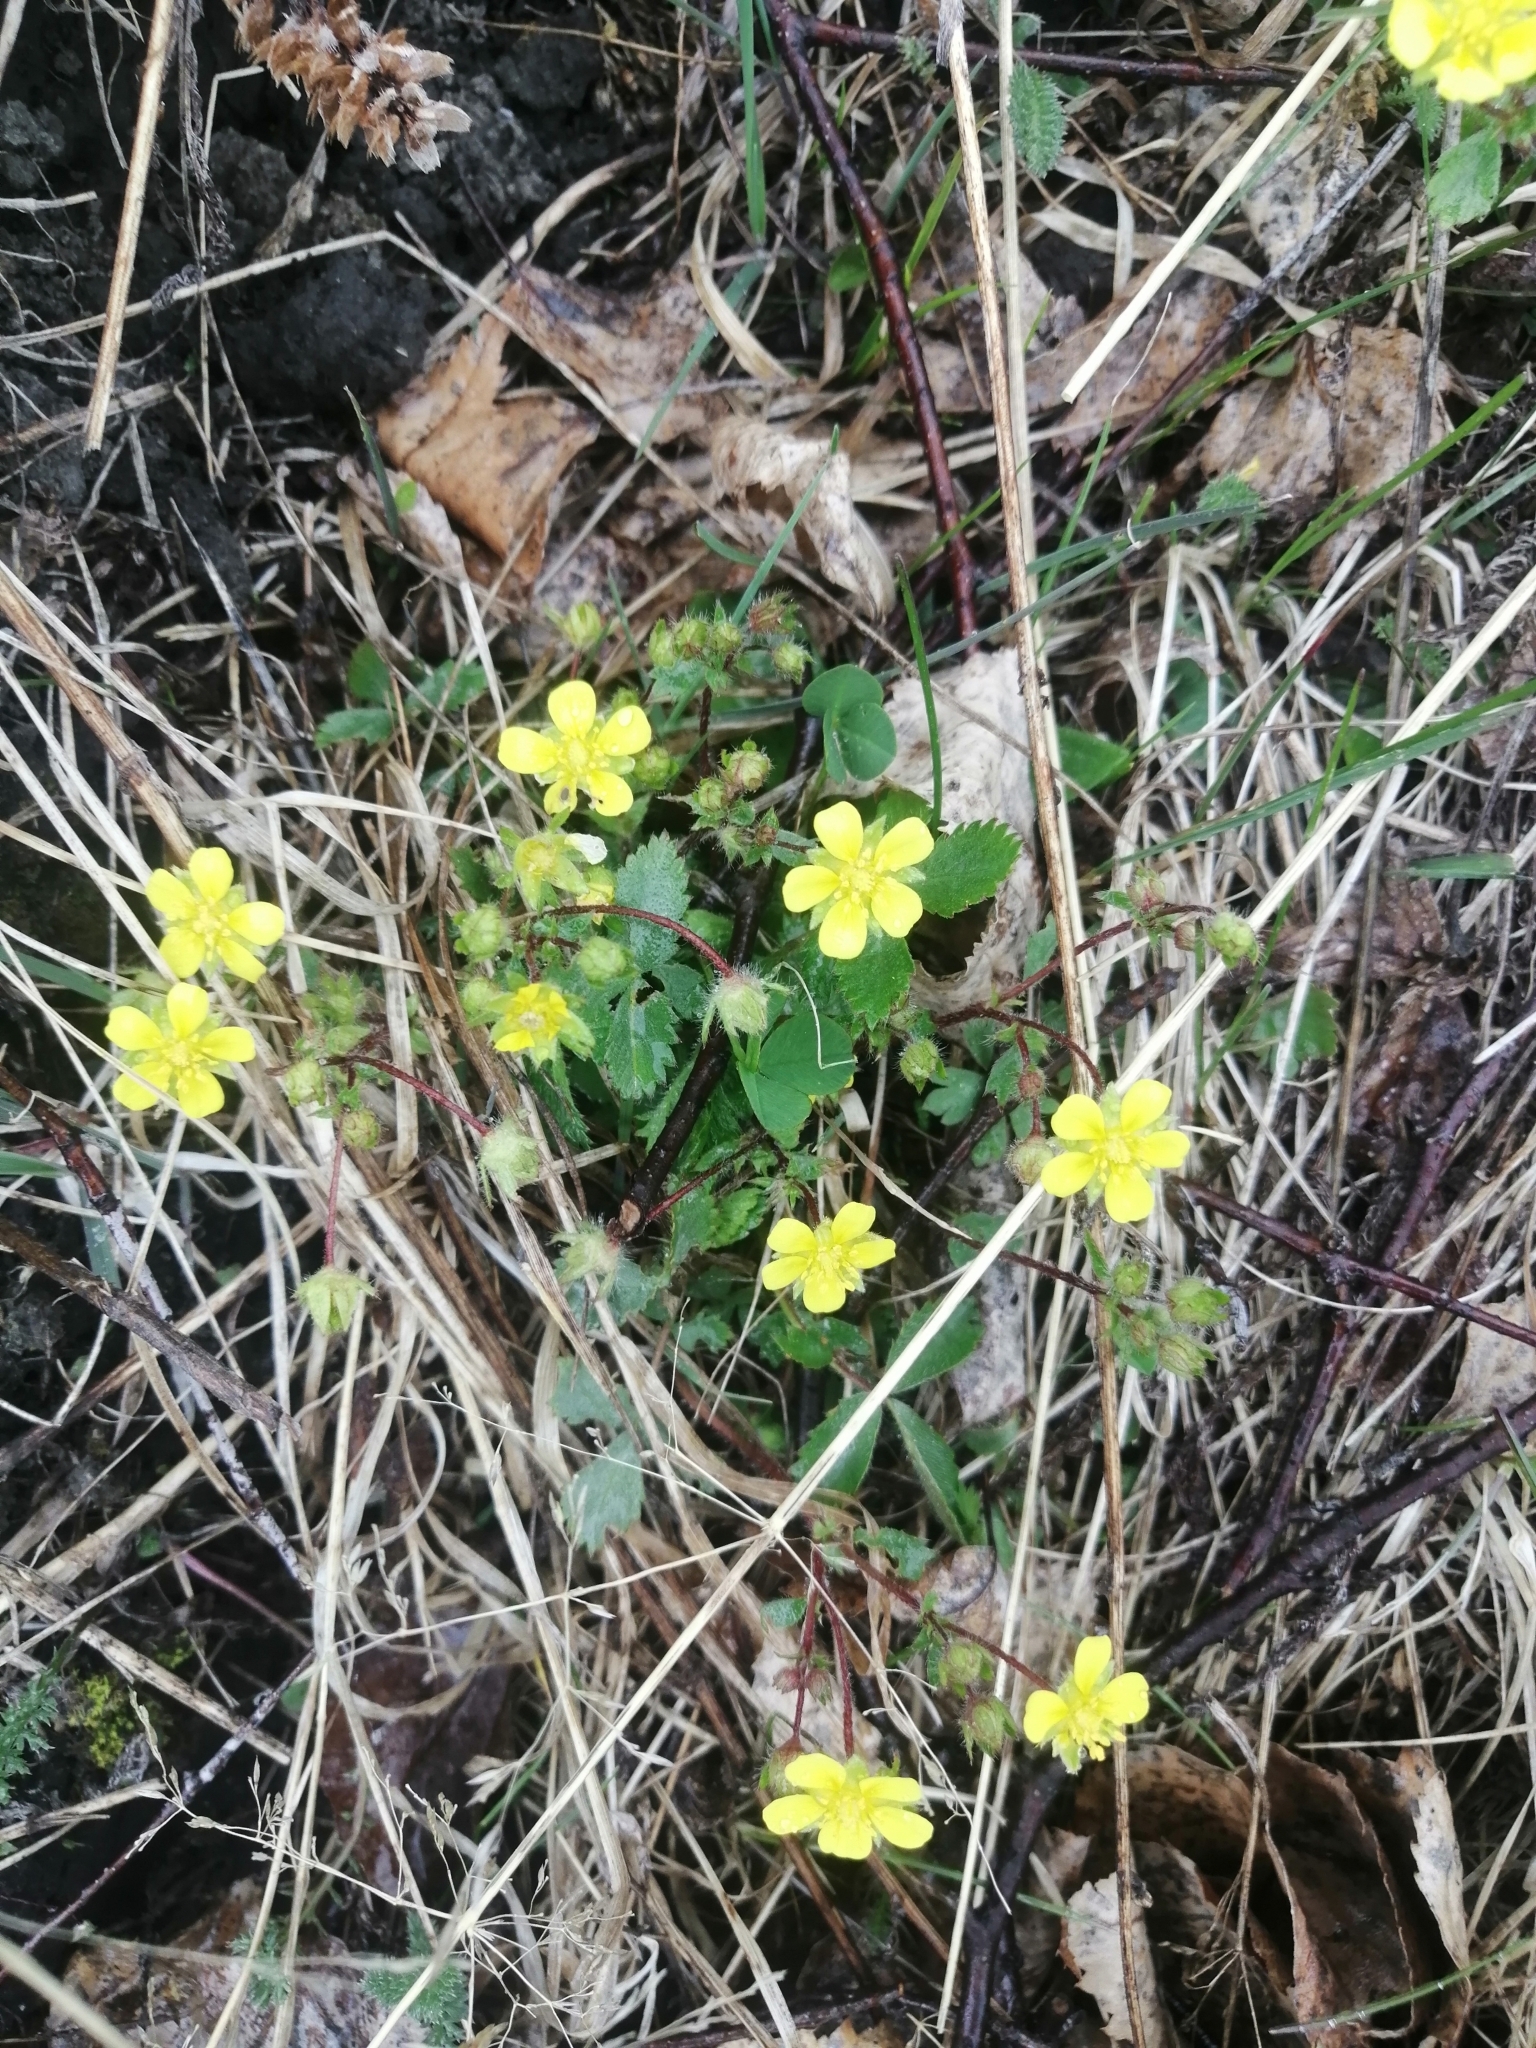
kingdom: Plantae
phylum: Tracheophyta
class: Magnoliopsida
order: Rosales
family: Rosaceae
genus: Potentilla
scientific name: Potentilla fragarioides
